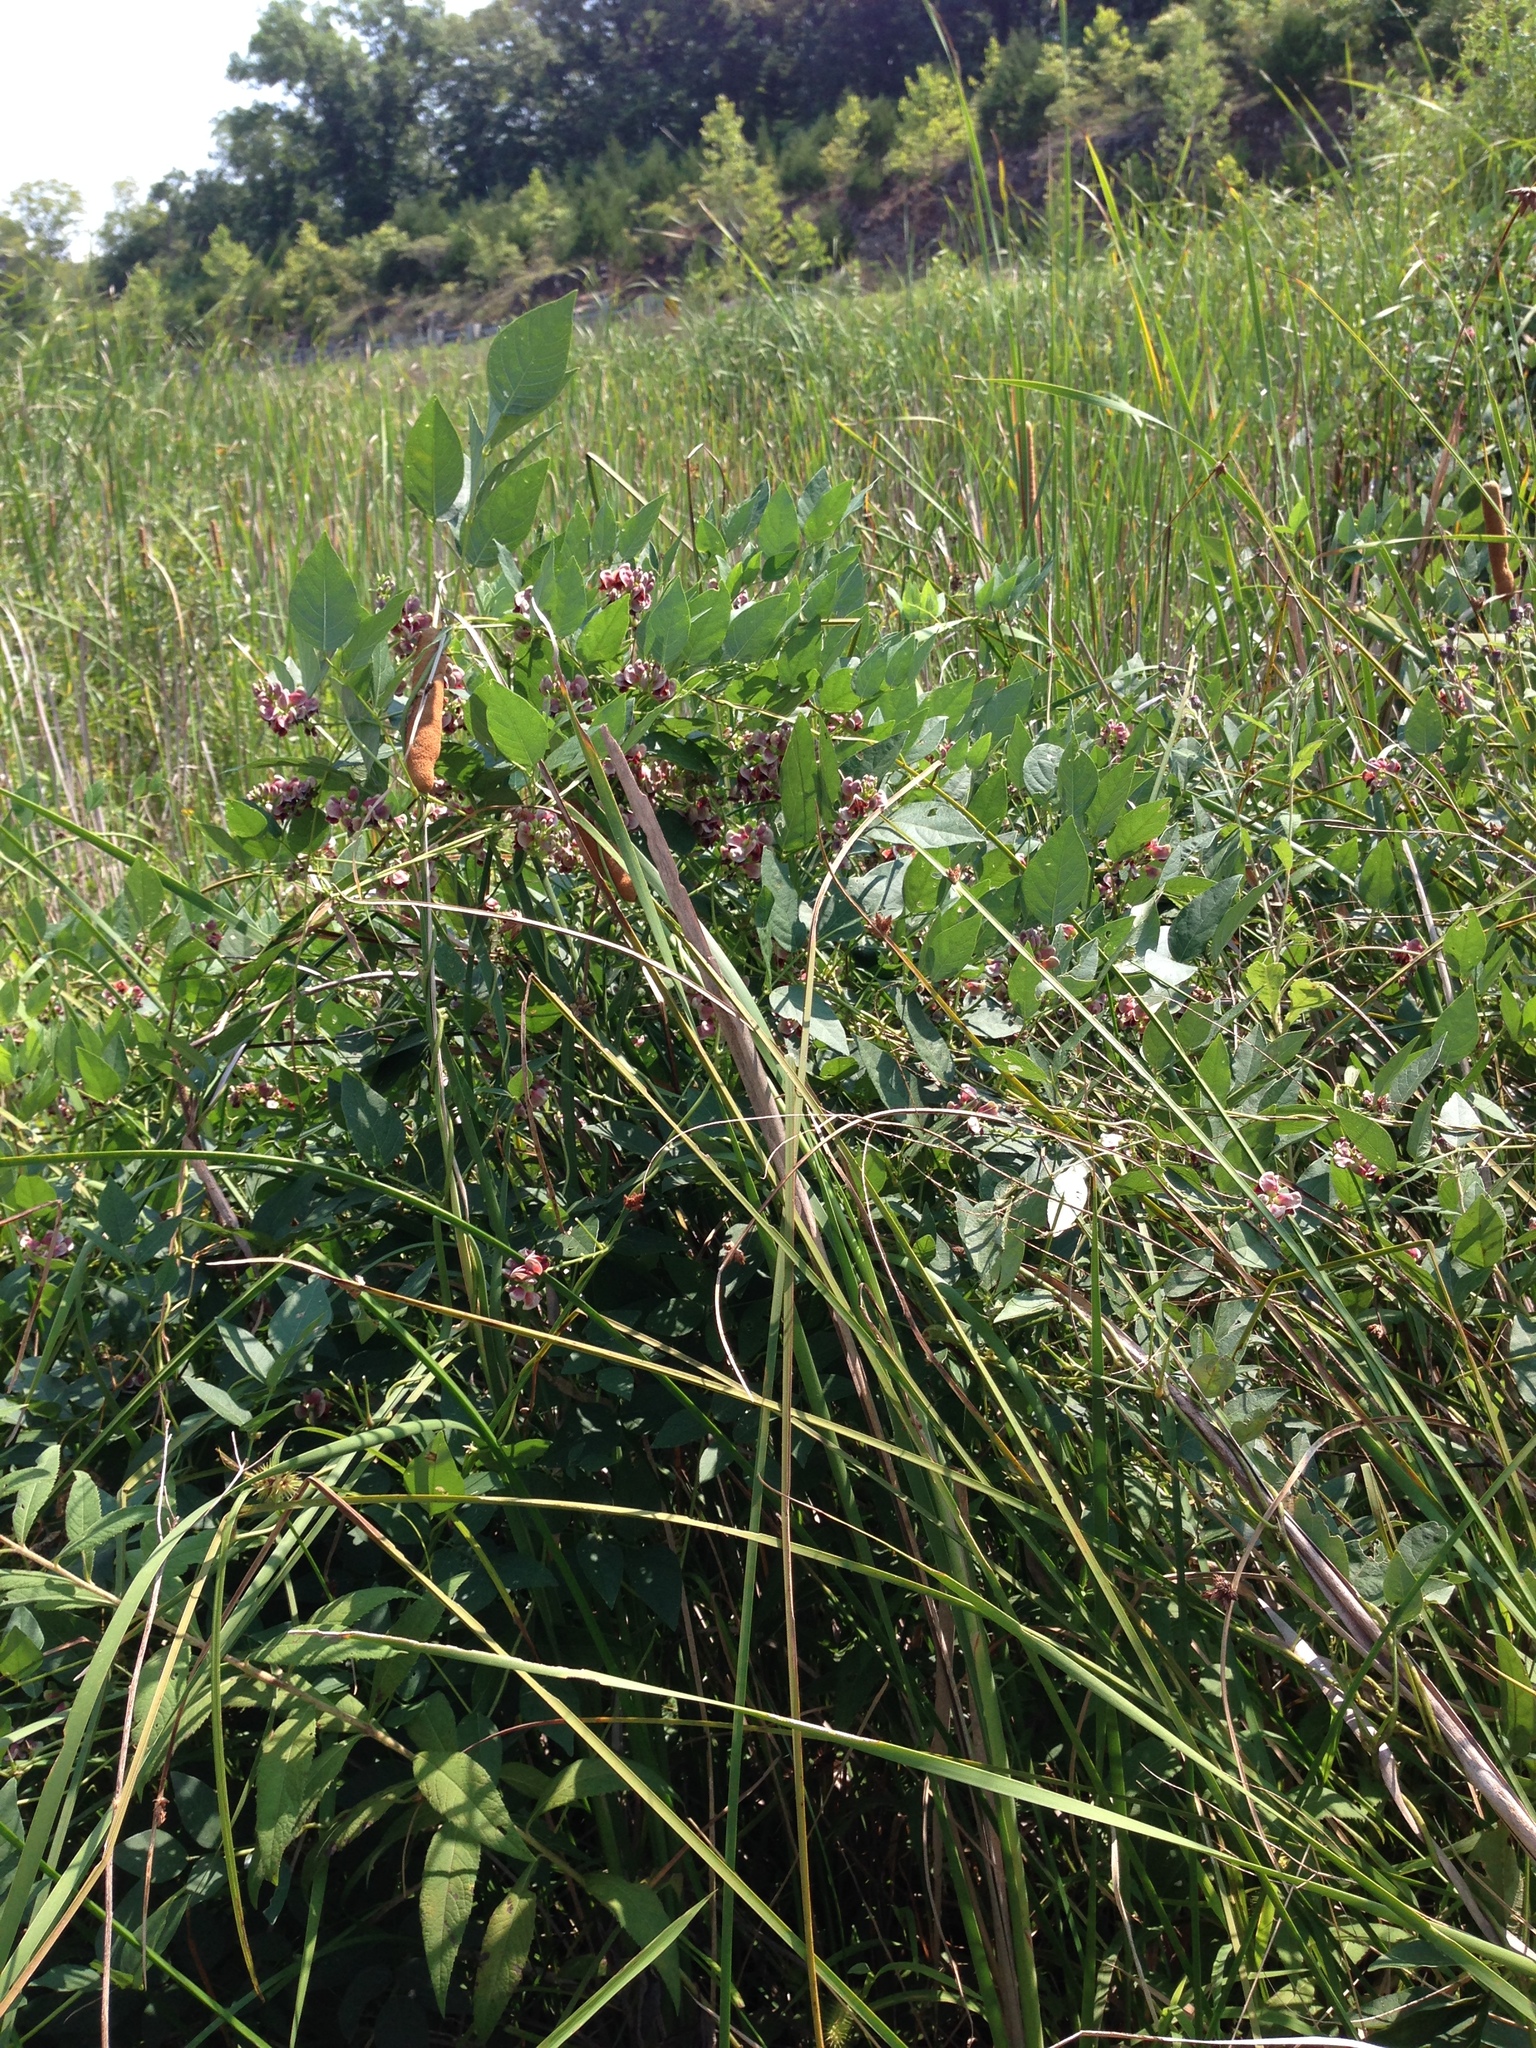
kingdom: Plantae
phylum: Tracheophyta
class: Magnoliopsida
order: Fabales
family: Fabaceae
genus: Apios
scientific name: Apios americana
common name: American potato-bean
